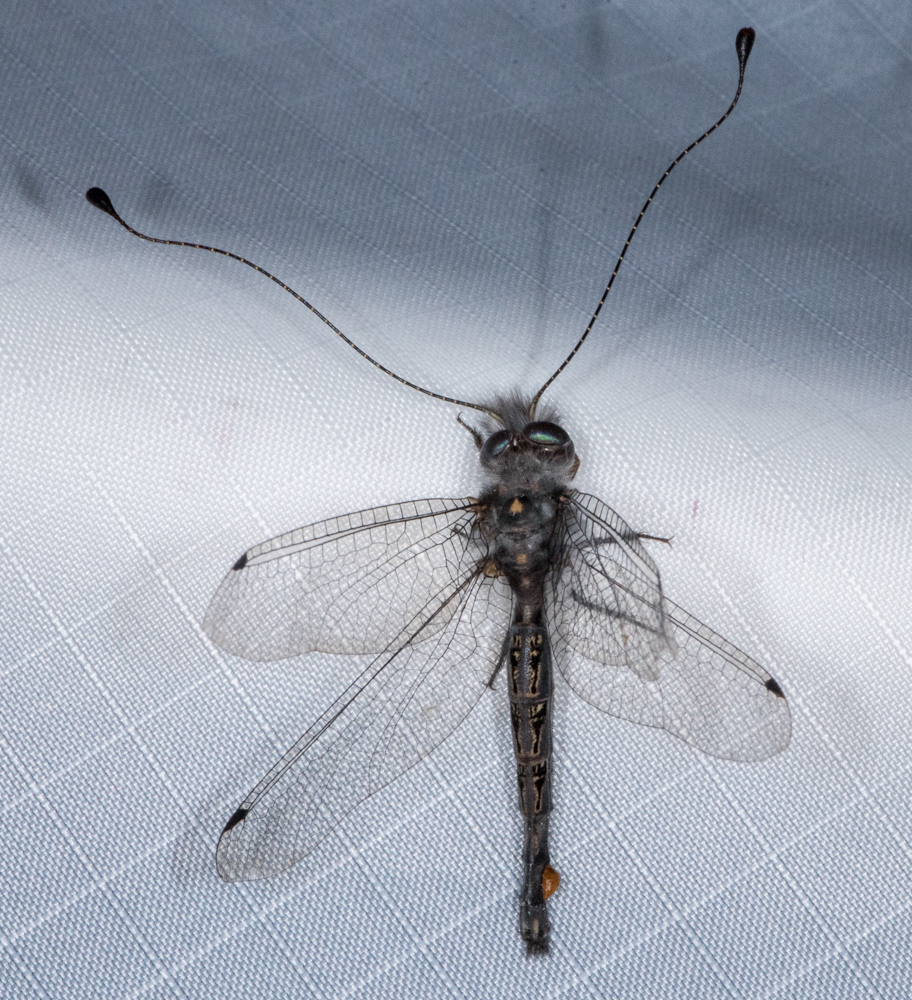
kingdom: Animalia
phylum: Arthropoda
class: Insecta
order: Neuroptera
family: Ascalaphidae
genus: Ululodes
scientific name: Ululodes mexicanus
